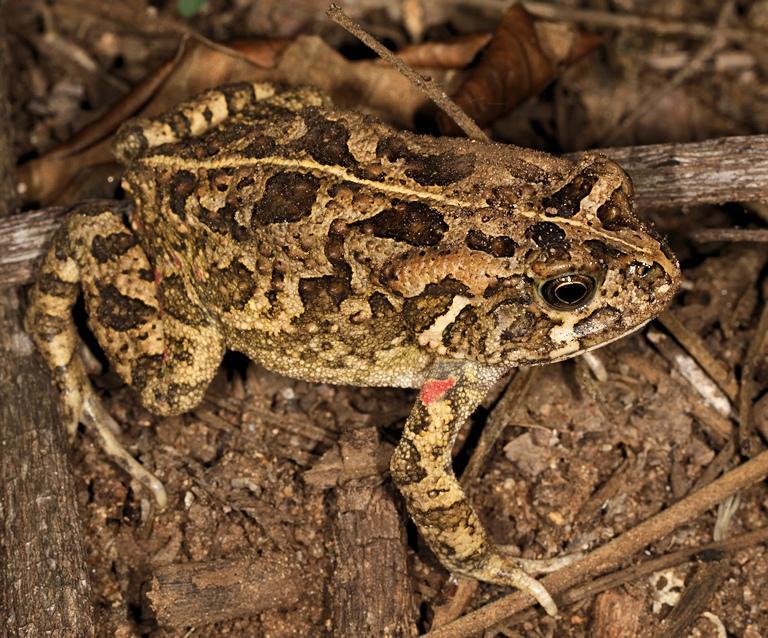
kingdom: Animalia
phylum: Chordata
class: Amphibia
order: Anura
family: Bufonidae
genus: Sclerophrys
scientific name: Sclerophrys gutturalis
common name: African common toad
